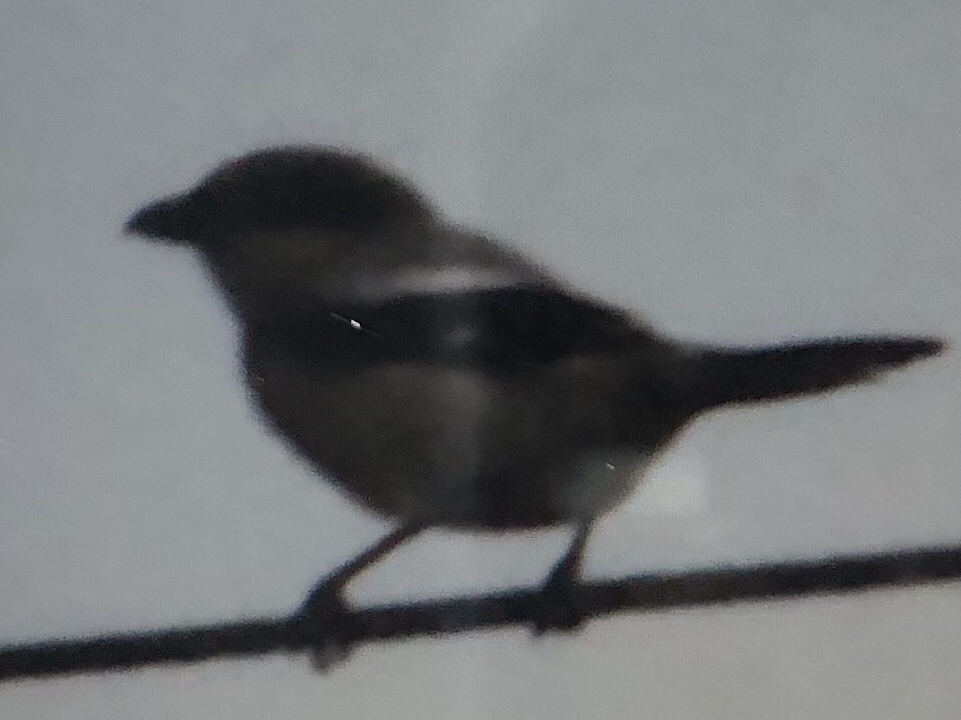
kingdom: Animalia
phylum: Chordata
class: Aves
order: Passeriformes
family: Laniidae
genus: Lanius
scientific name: Lanius ludovicianus
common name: Loggerhead shrike
